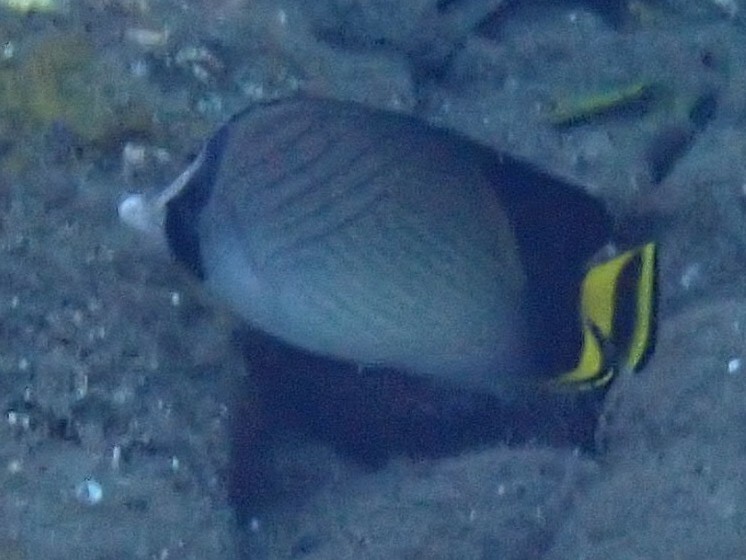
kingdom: Animalia
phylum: Chordata
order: Perciformes
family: Chaetodontidae
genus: Chaetodon
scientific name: Chaetodon decussatus
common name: Indian vagabond butterflyfish
